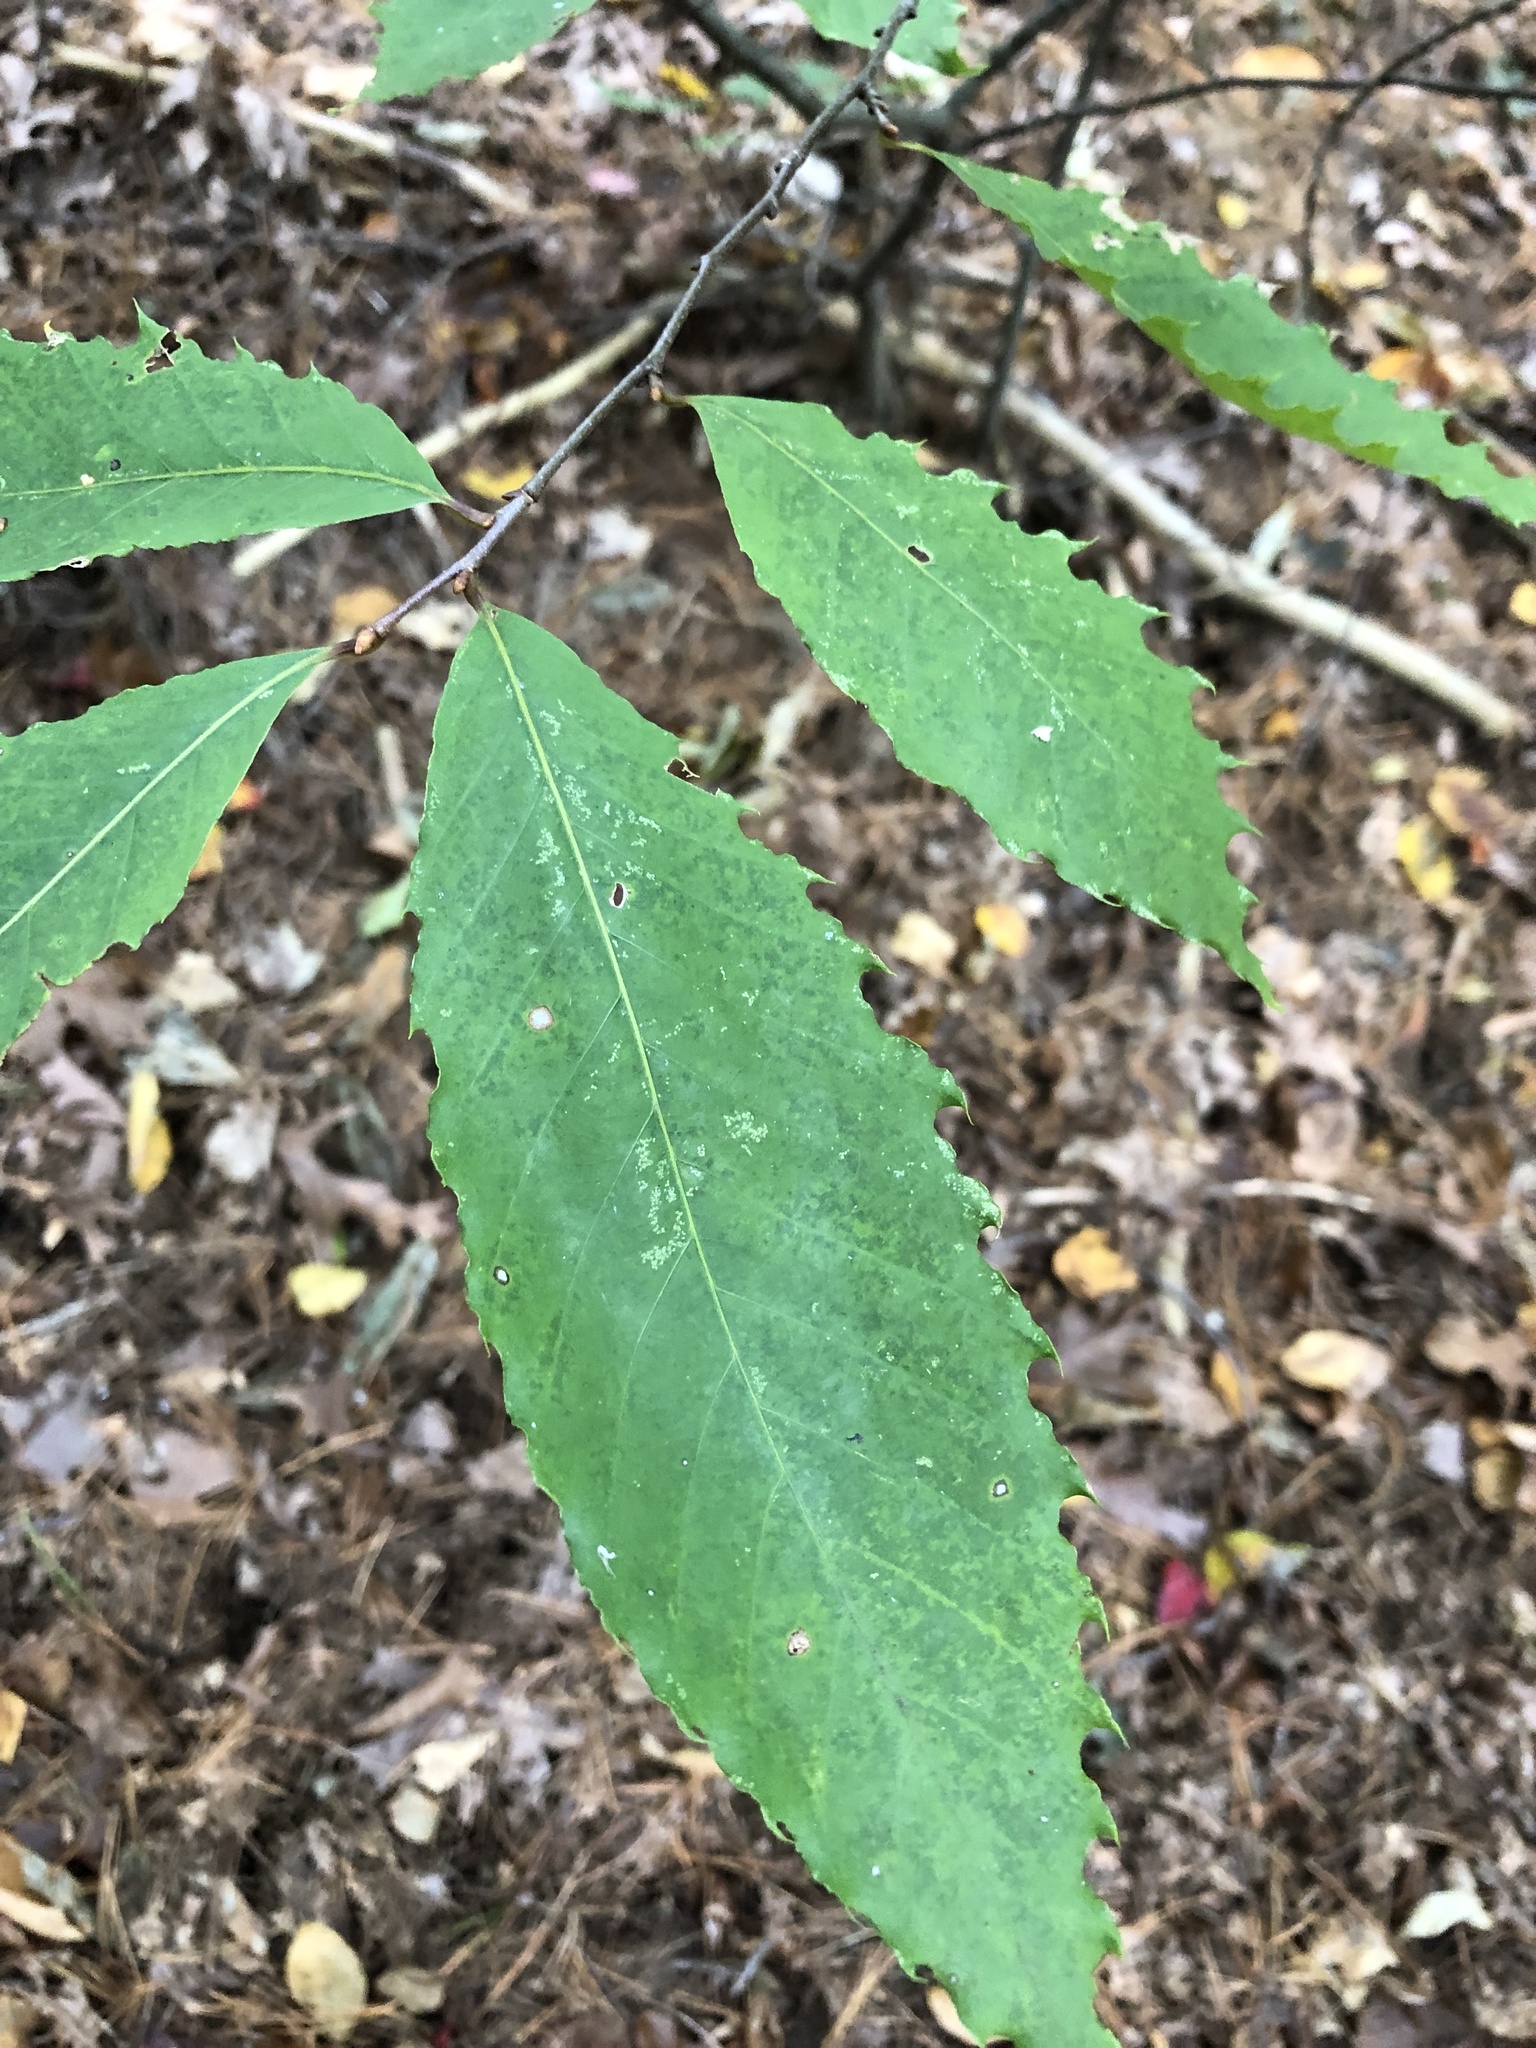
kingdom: Plantae
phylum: Tracheophyta
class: Magnoliopsida
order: Fagales
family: Fagaceae
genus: Castanea
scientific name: Castanea dentata
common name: American chestnut
